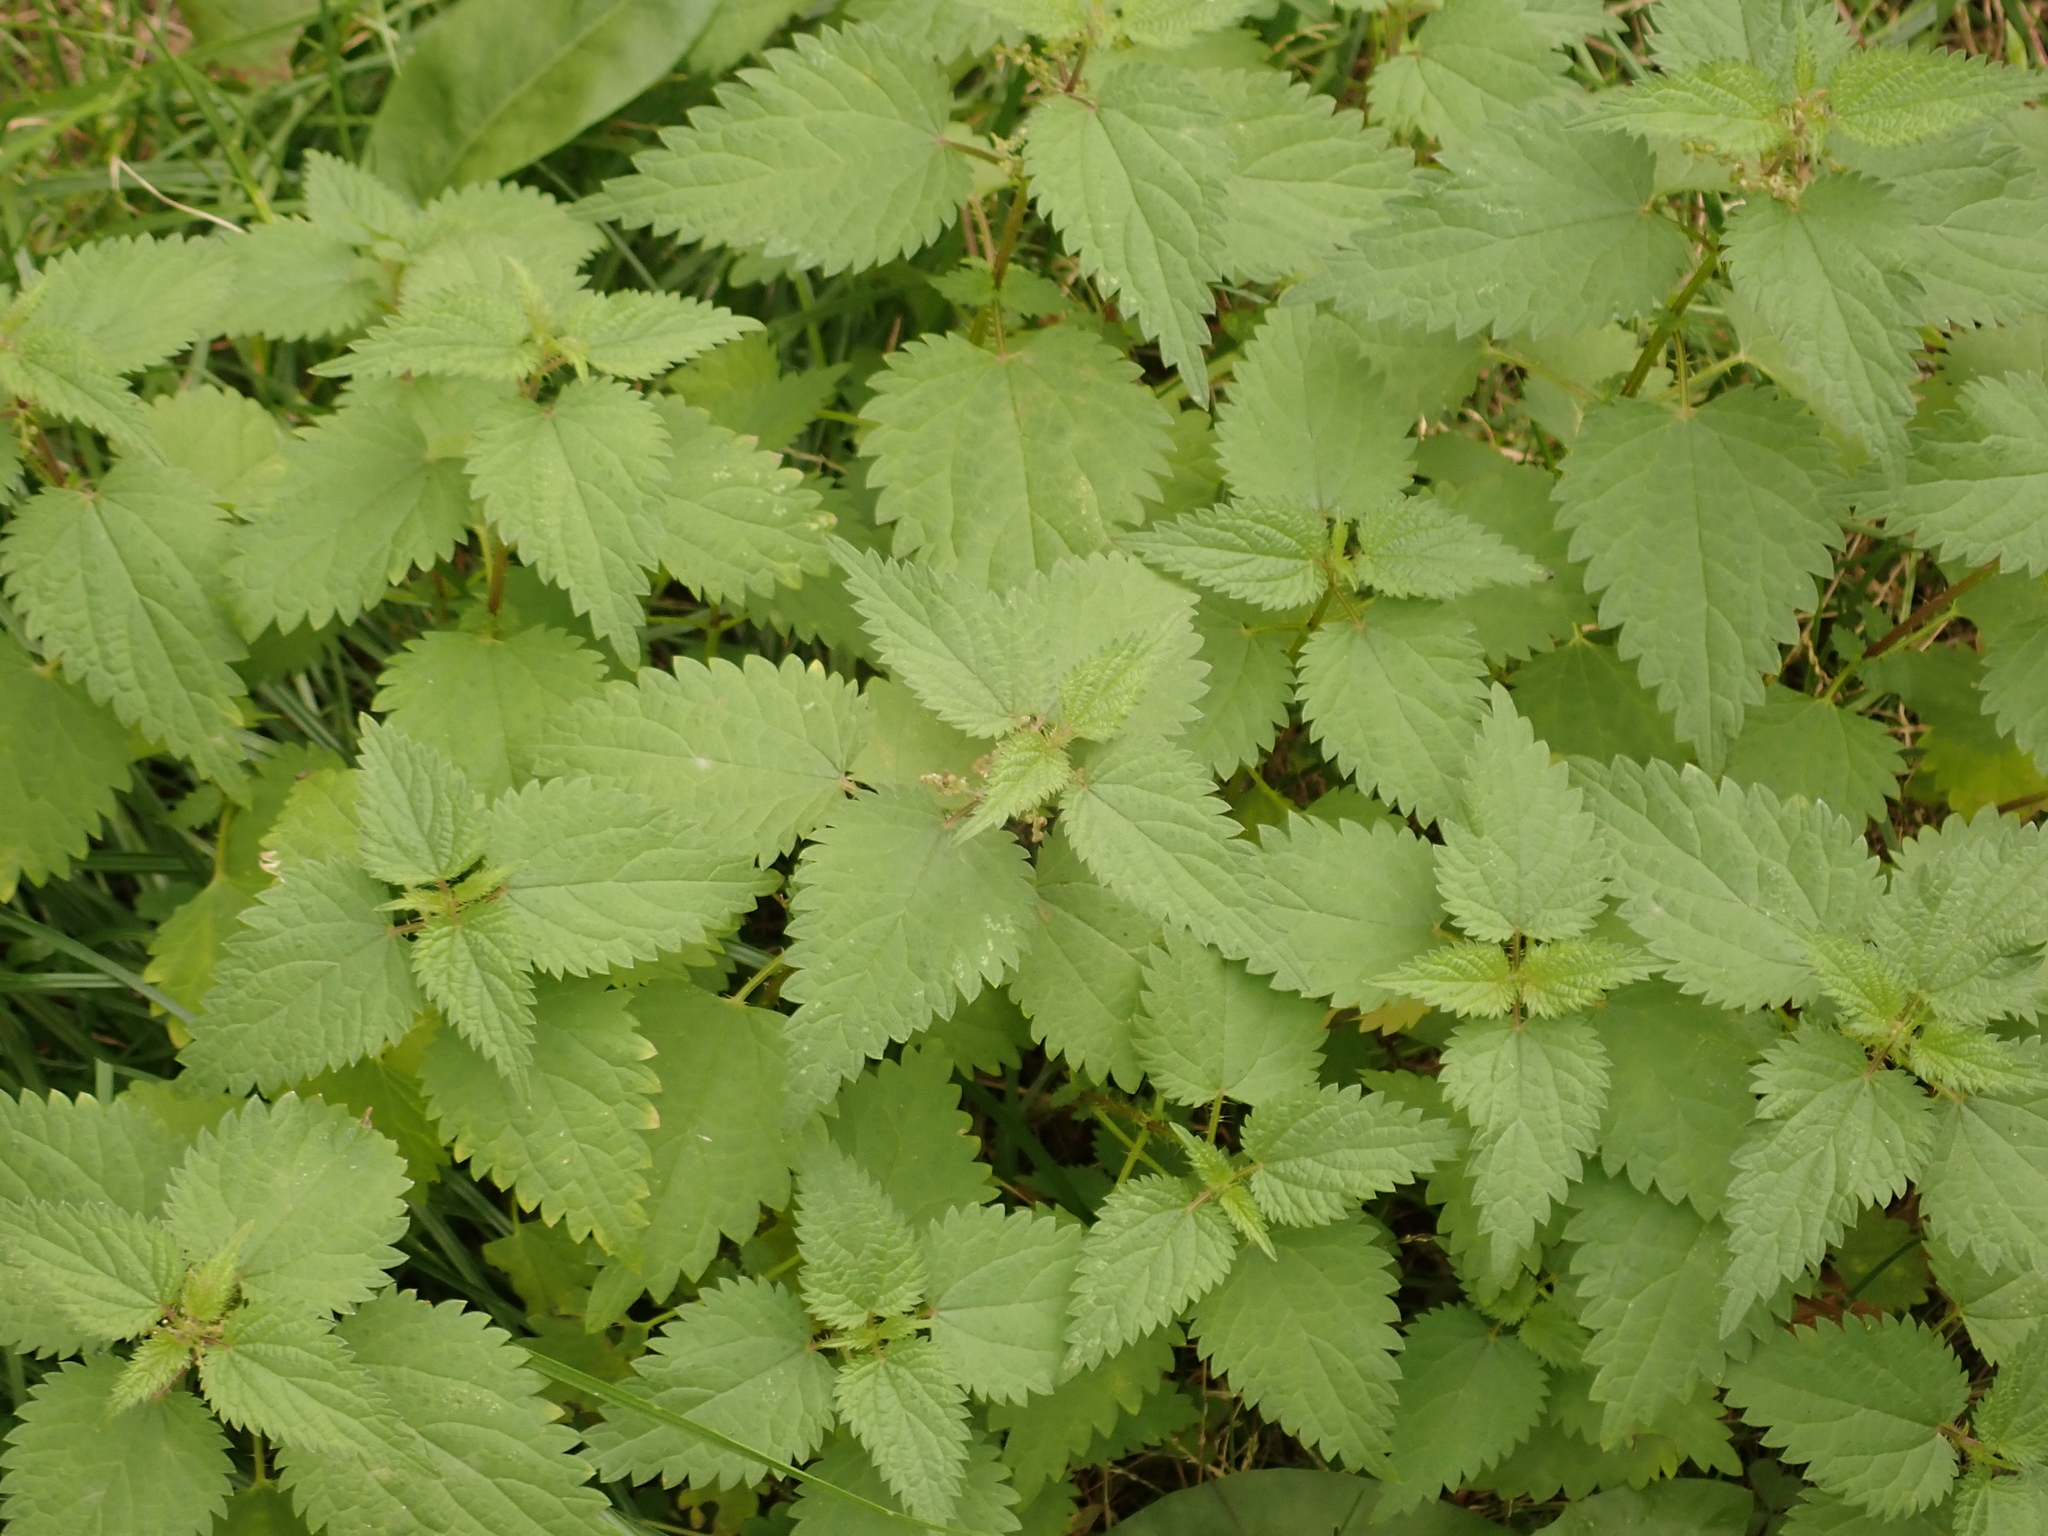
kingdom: Plantae
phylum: Tracheophyta
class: Magnoliopsida
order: Rosales
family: Urticaceae
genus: Urtica
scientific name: Urtica dioica
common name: Common nettle
